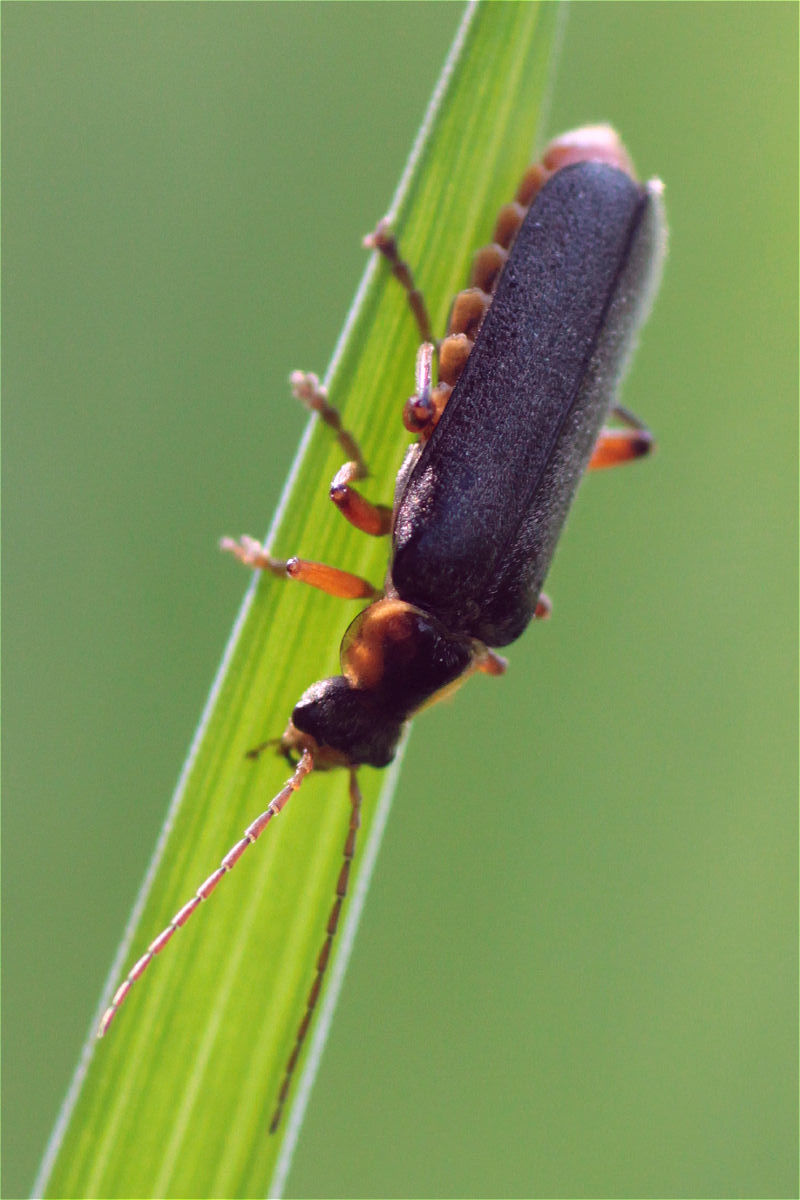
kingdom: Animalia
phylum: Arthropoda
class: Insecta
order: Coleoptera
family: Cantharidae
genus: Cantharis
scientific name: Cantharis nigricans
